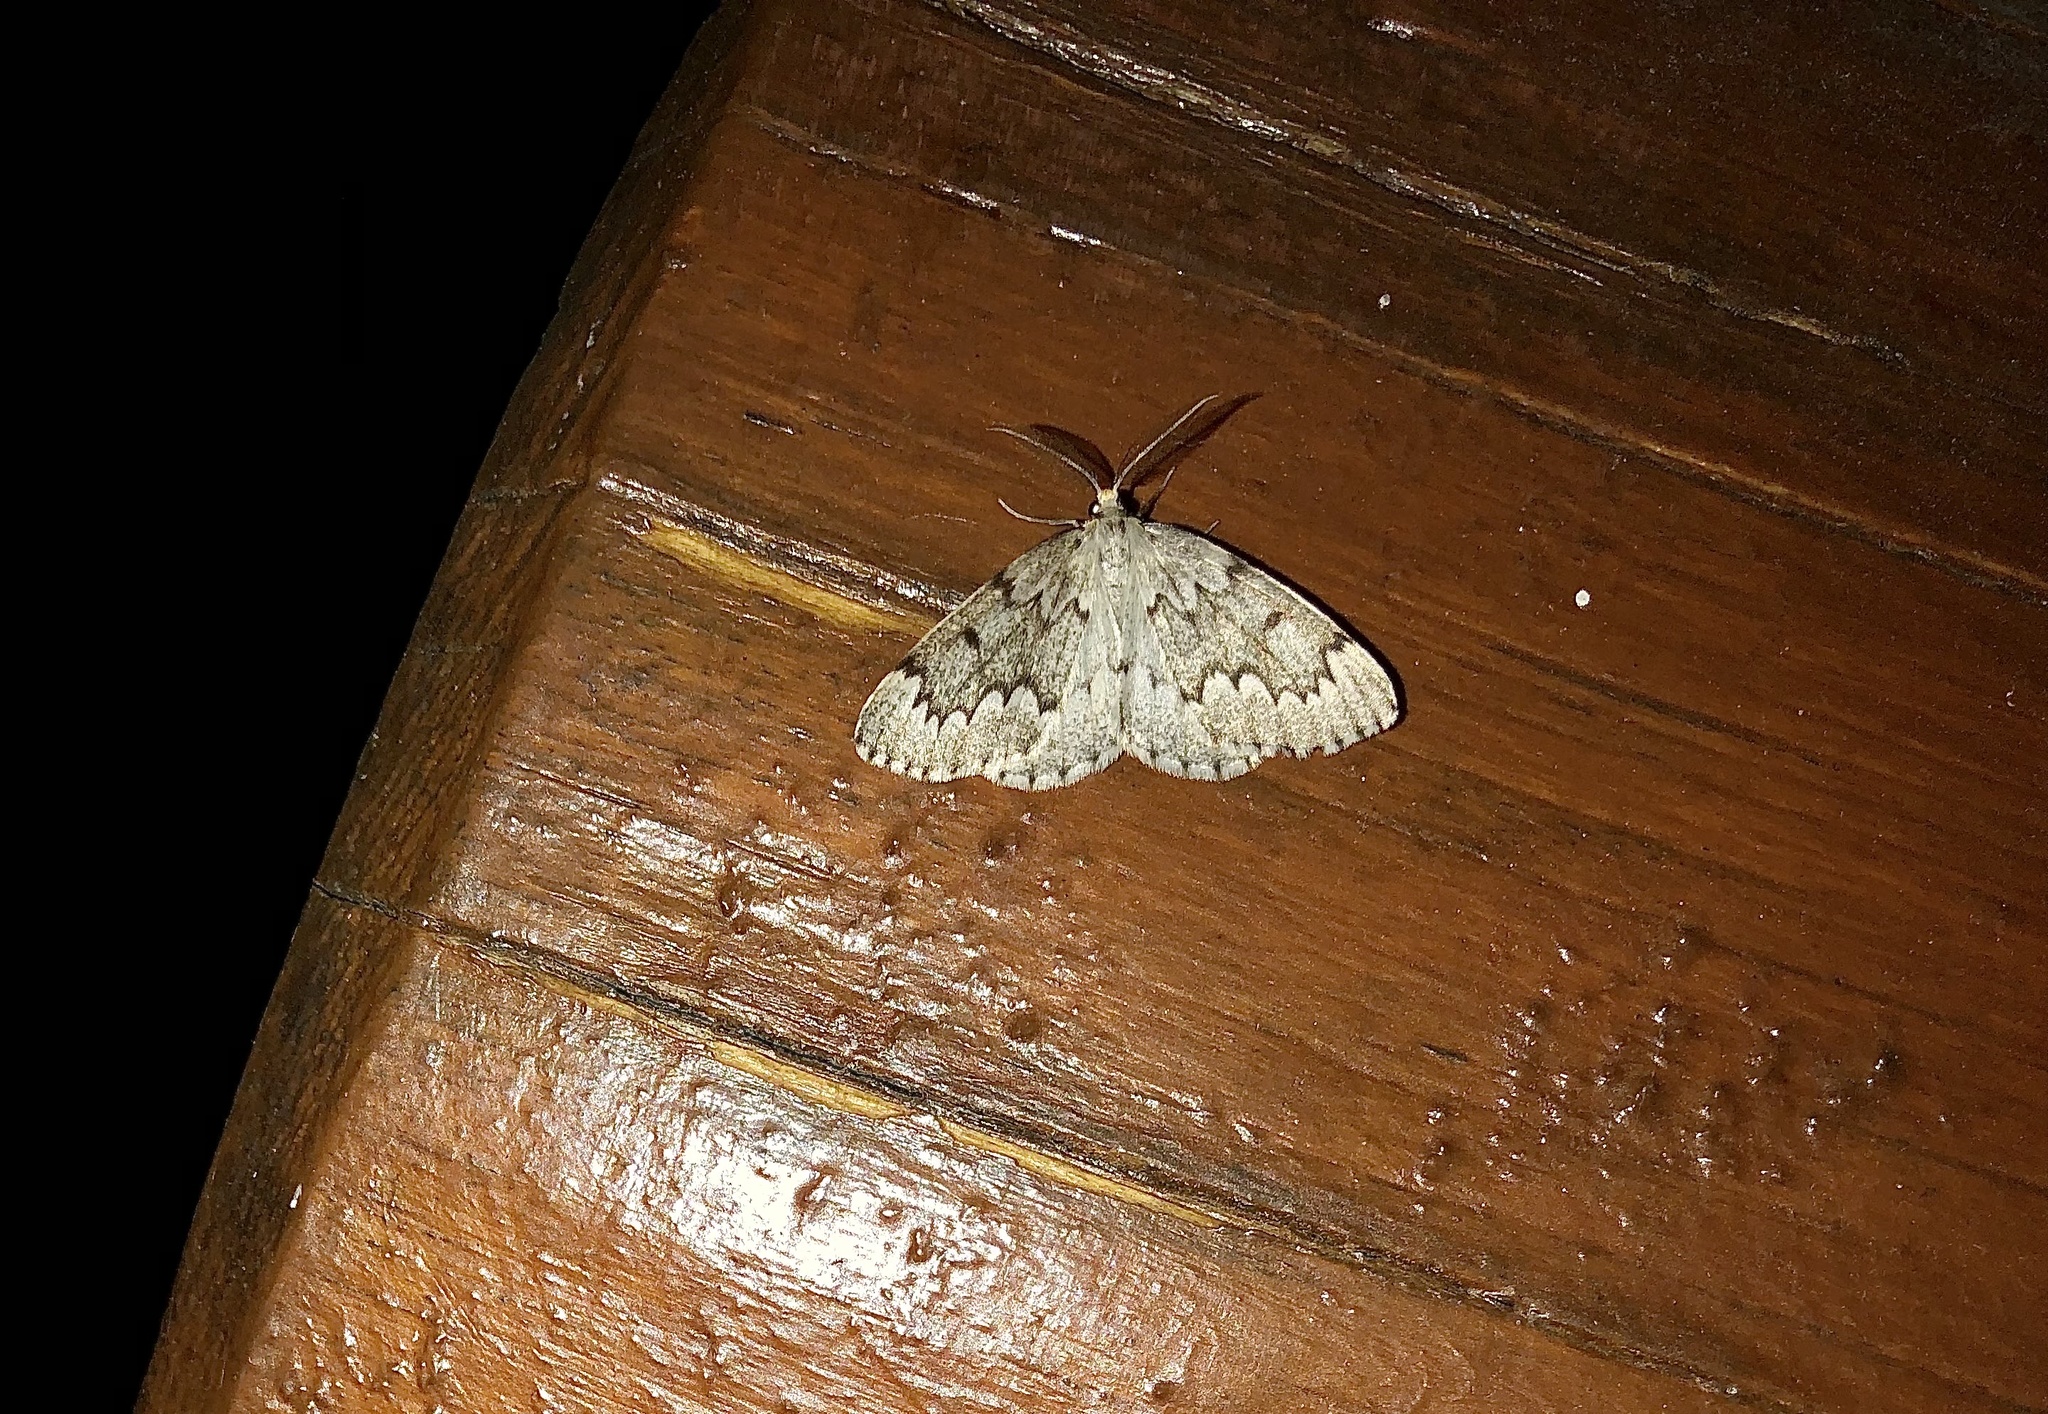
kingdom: Animalia
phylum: Arthropoda
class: Insecta
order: Lepidoptera
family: Geometridae
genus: Nepytia
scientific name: Nepytia canosaria
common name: False hemlock looper
